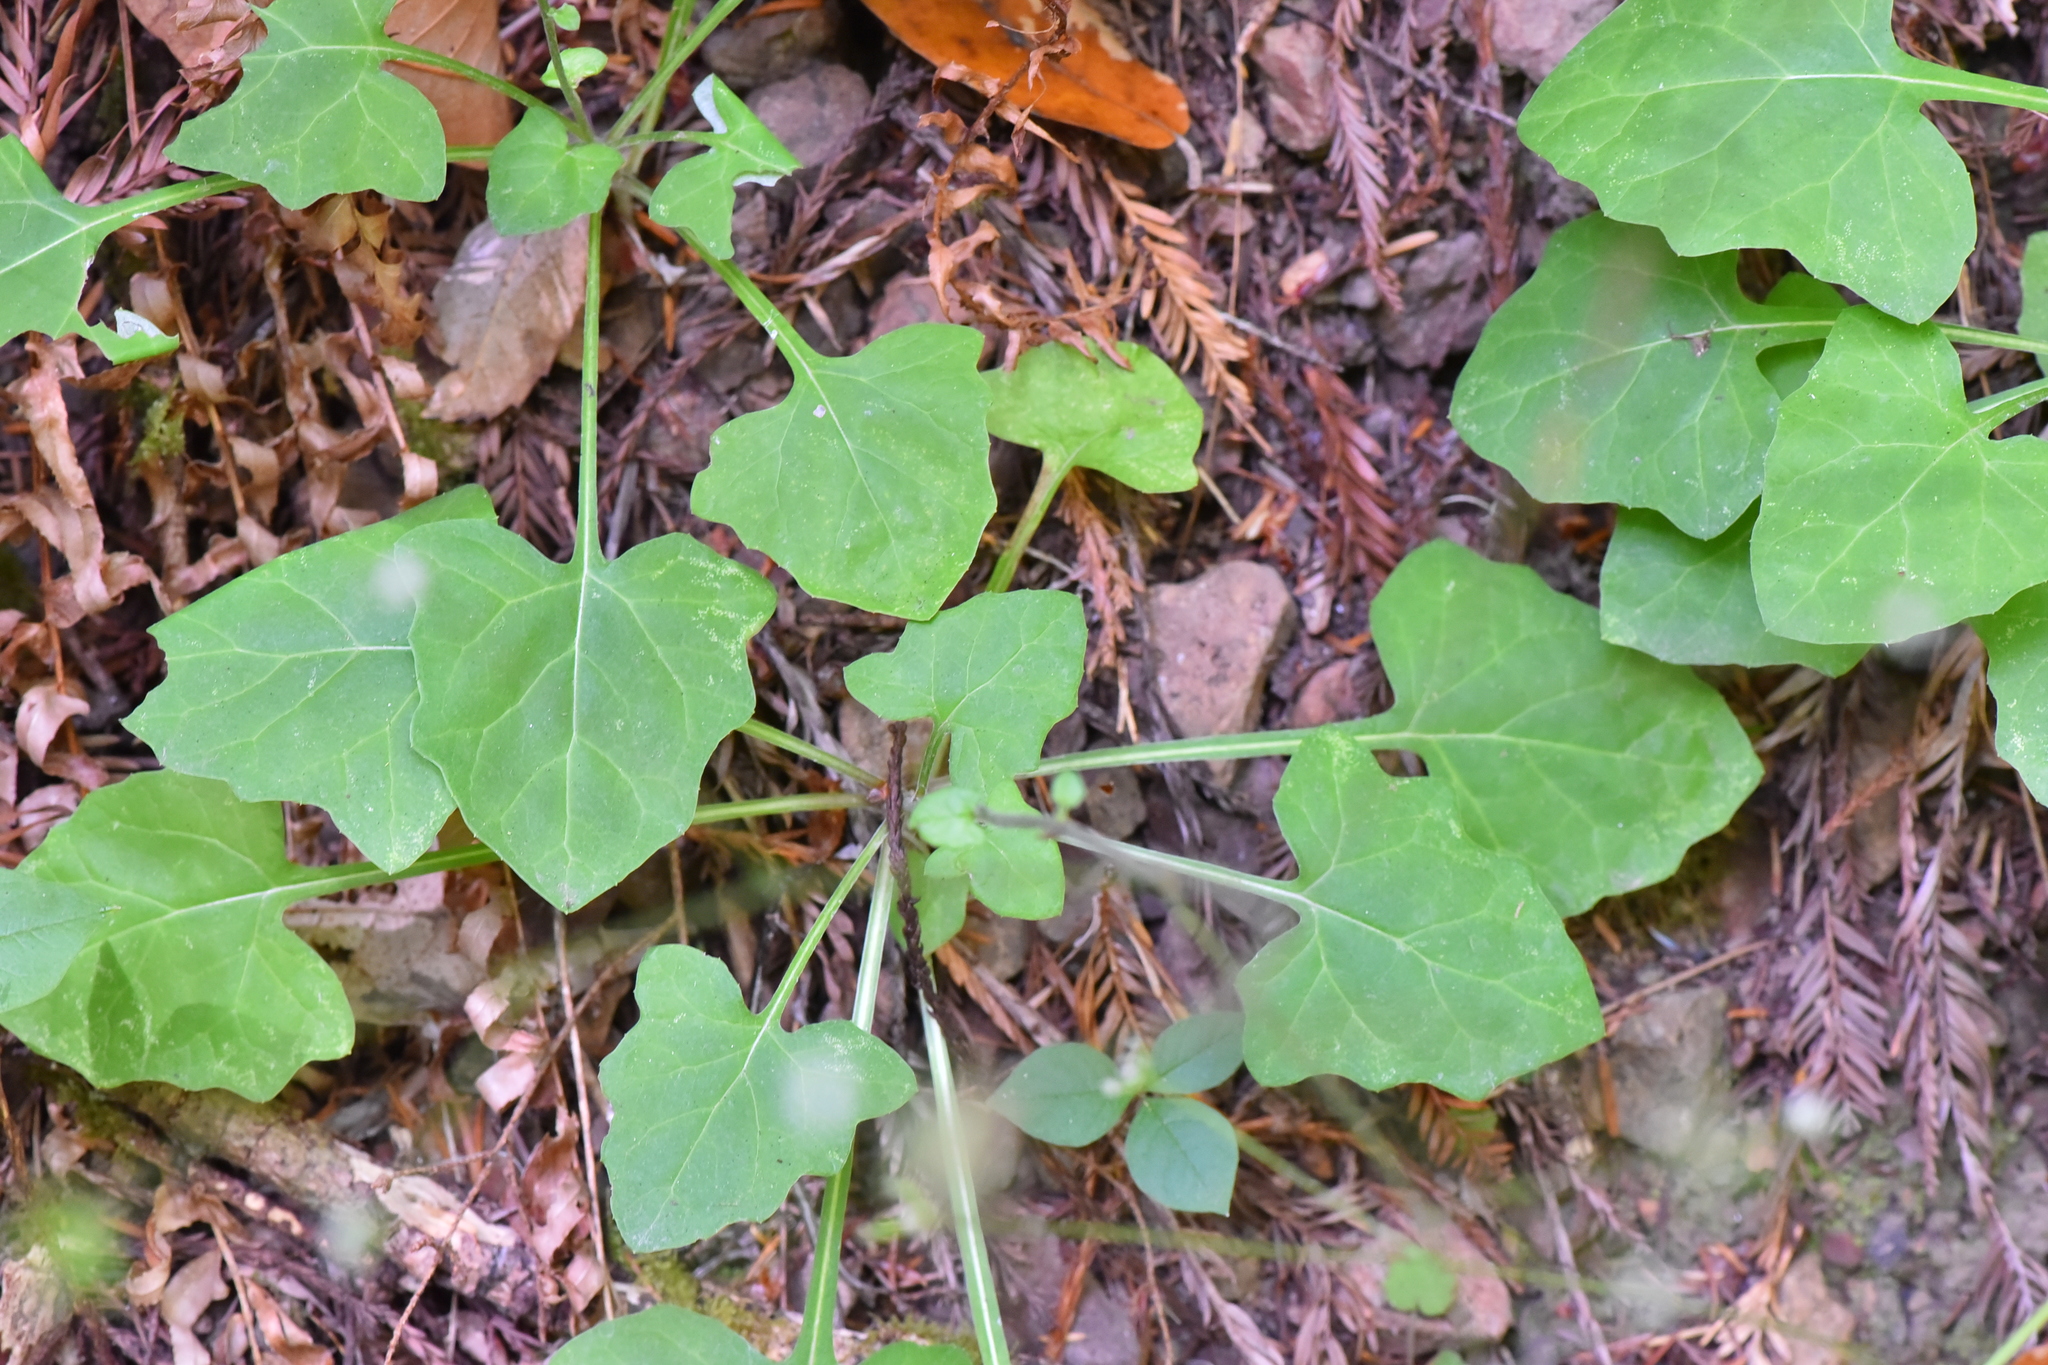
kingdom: Plantae
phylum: Tracheophyta
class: Magnoliopsida
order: Asterales
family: Asteraceae
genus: Adenocaulon
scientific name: Adenocaulon bicolor
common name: Trailplant
